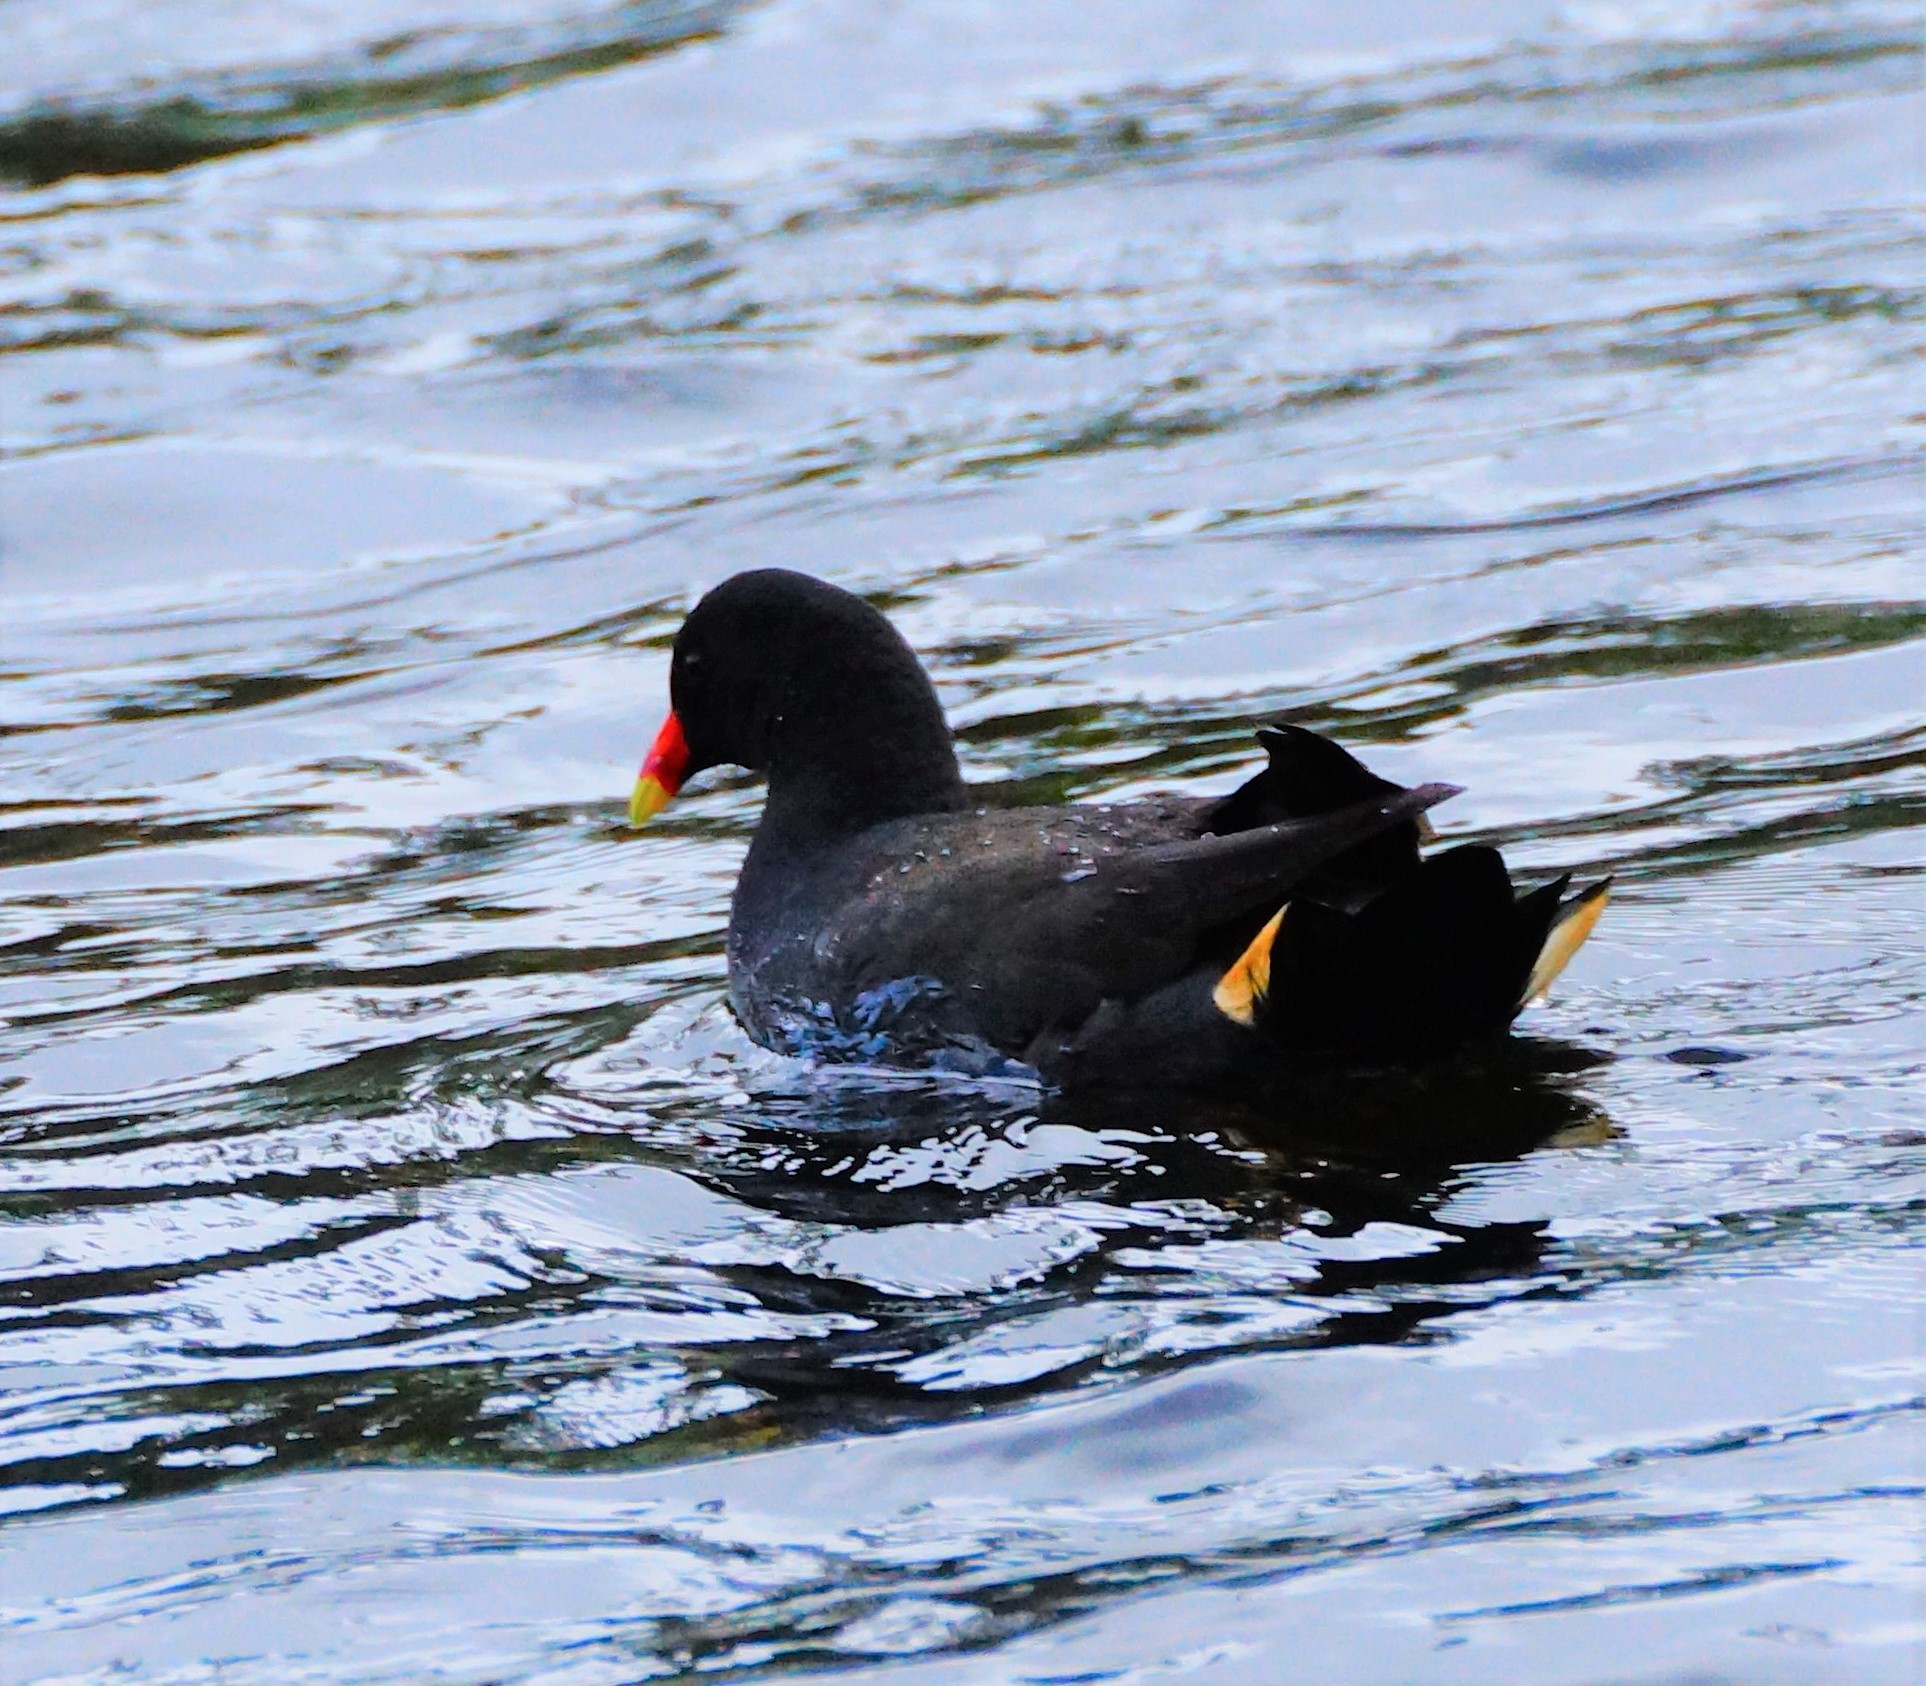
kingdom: Animalia
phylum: Chordata
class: Aves
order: Gruiformes
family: Rallidae
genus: Gallinula
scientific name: Gallinula tenebrosa
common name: Dusky moorhen
